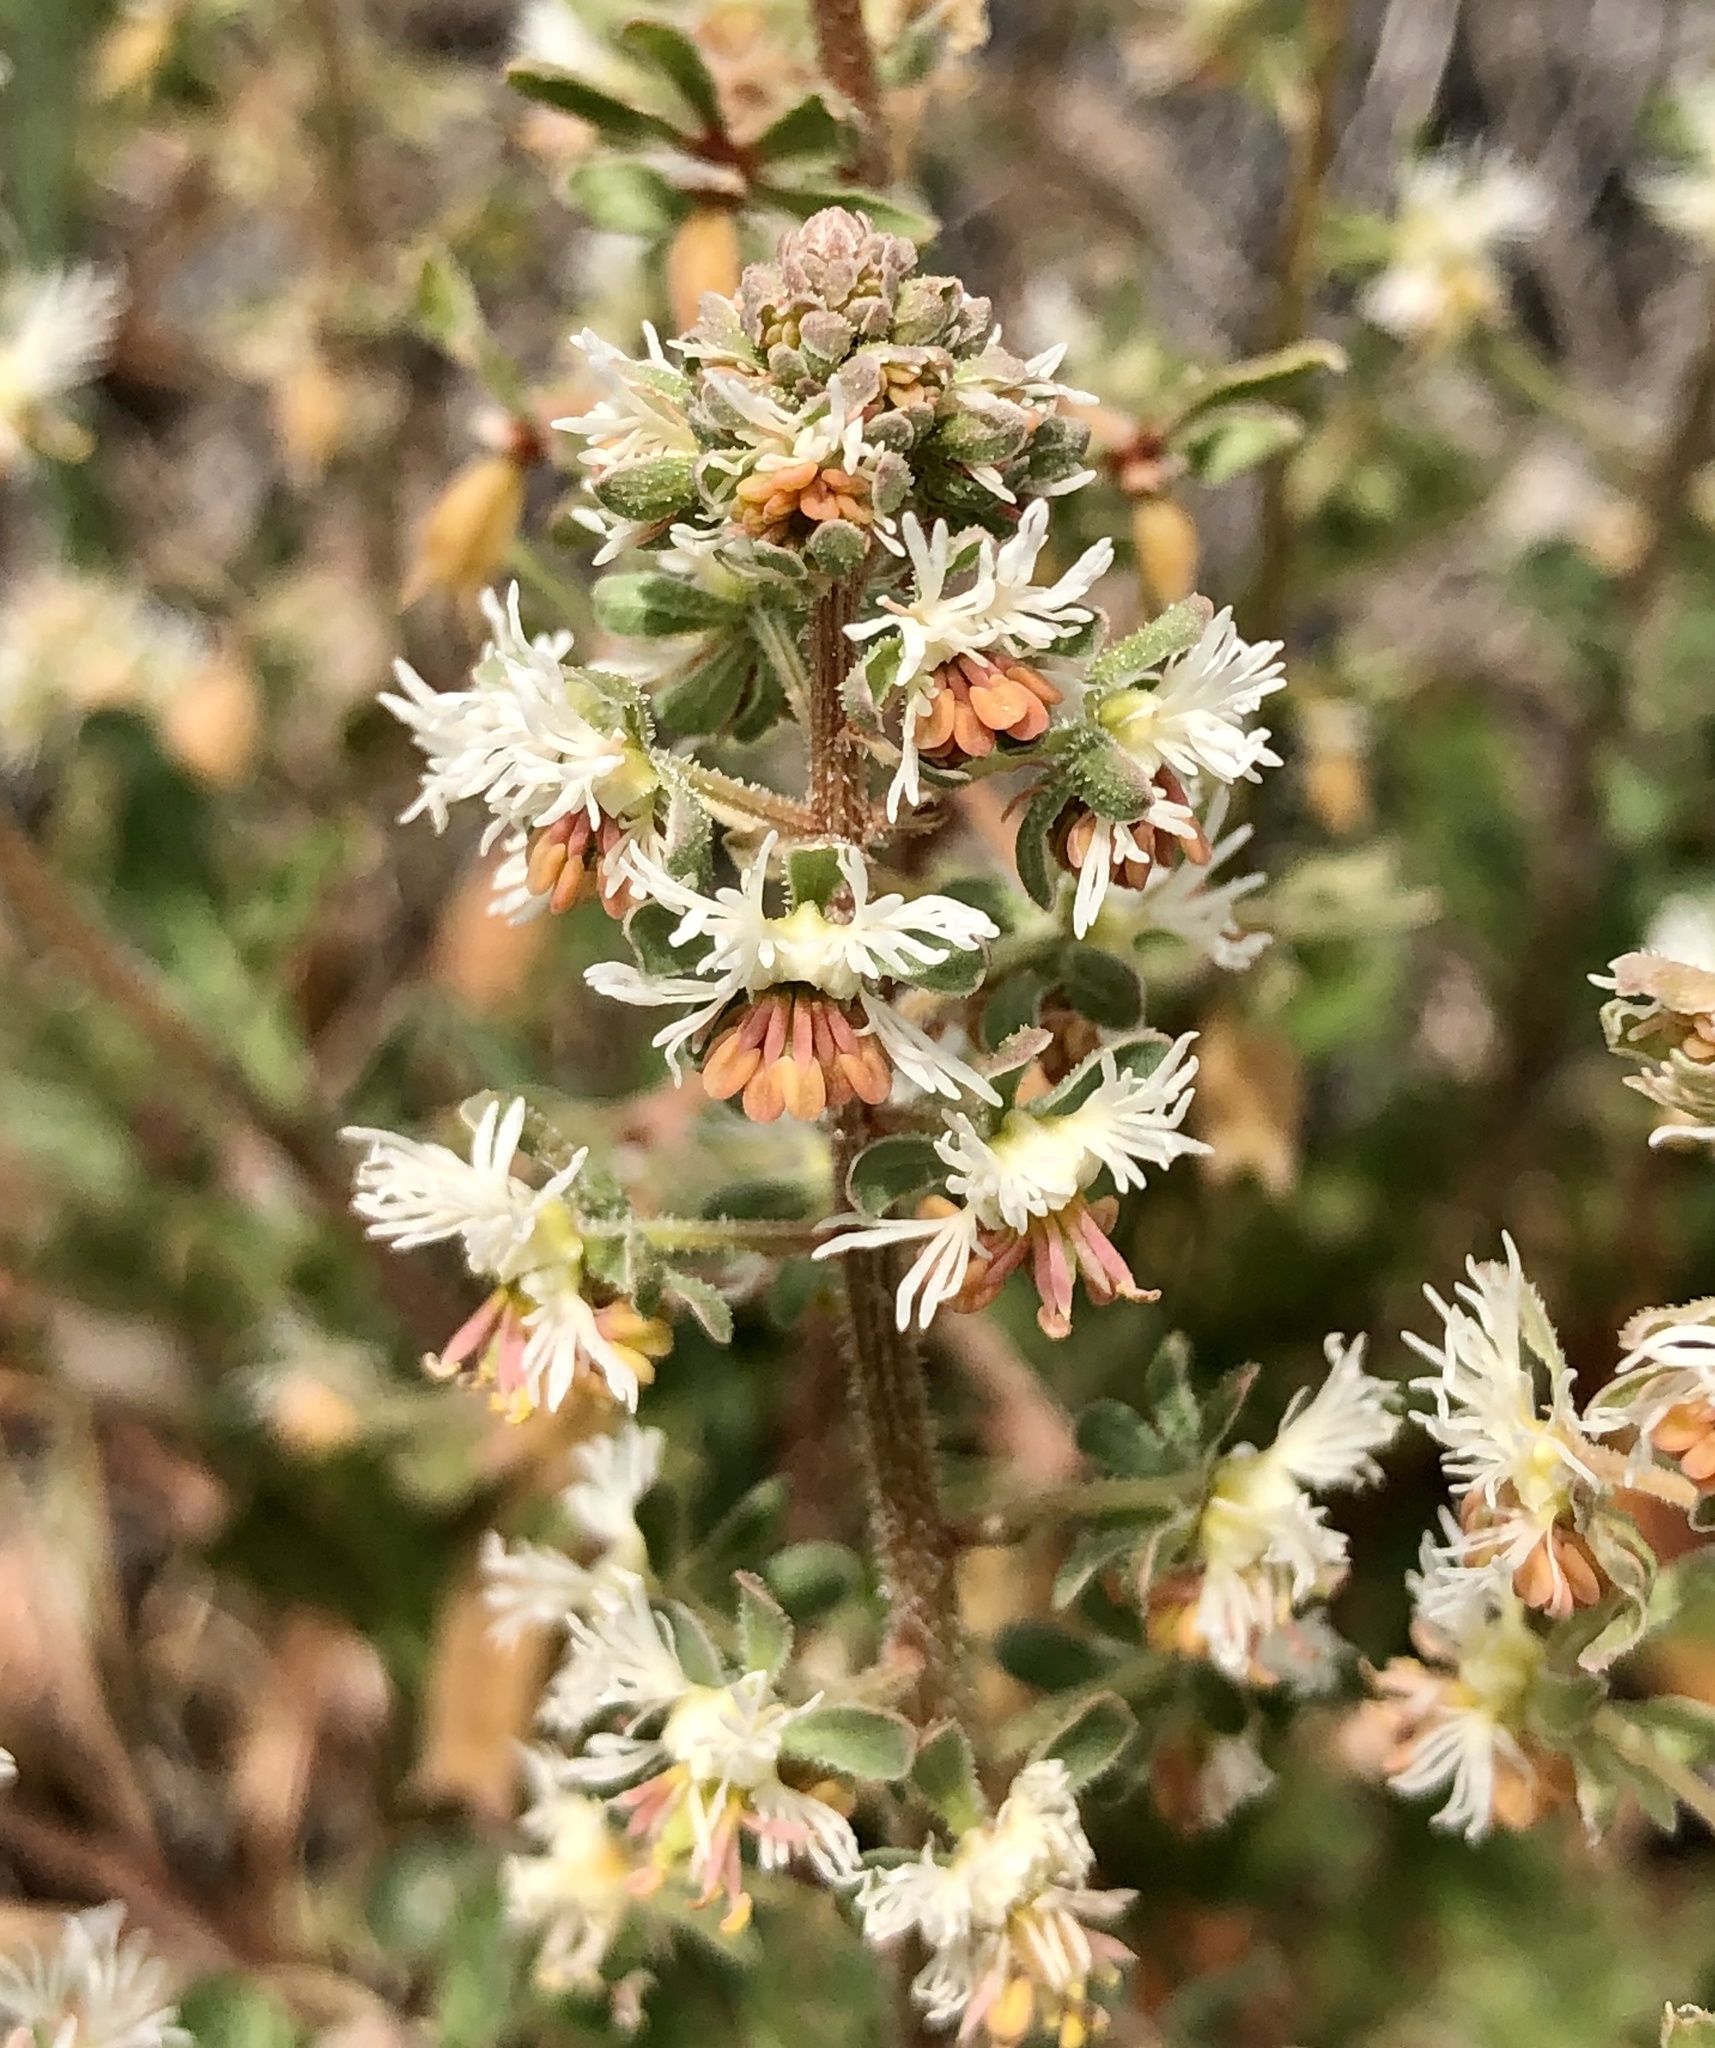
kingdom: Plantae
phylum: Tracheophyta
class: Magnoliopsida
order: Brassicales
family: Resedaceae
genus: Reseda
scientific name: Reseda phyteuma
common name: Corn mignonette
